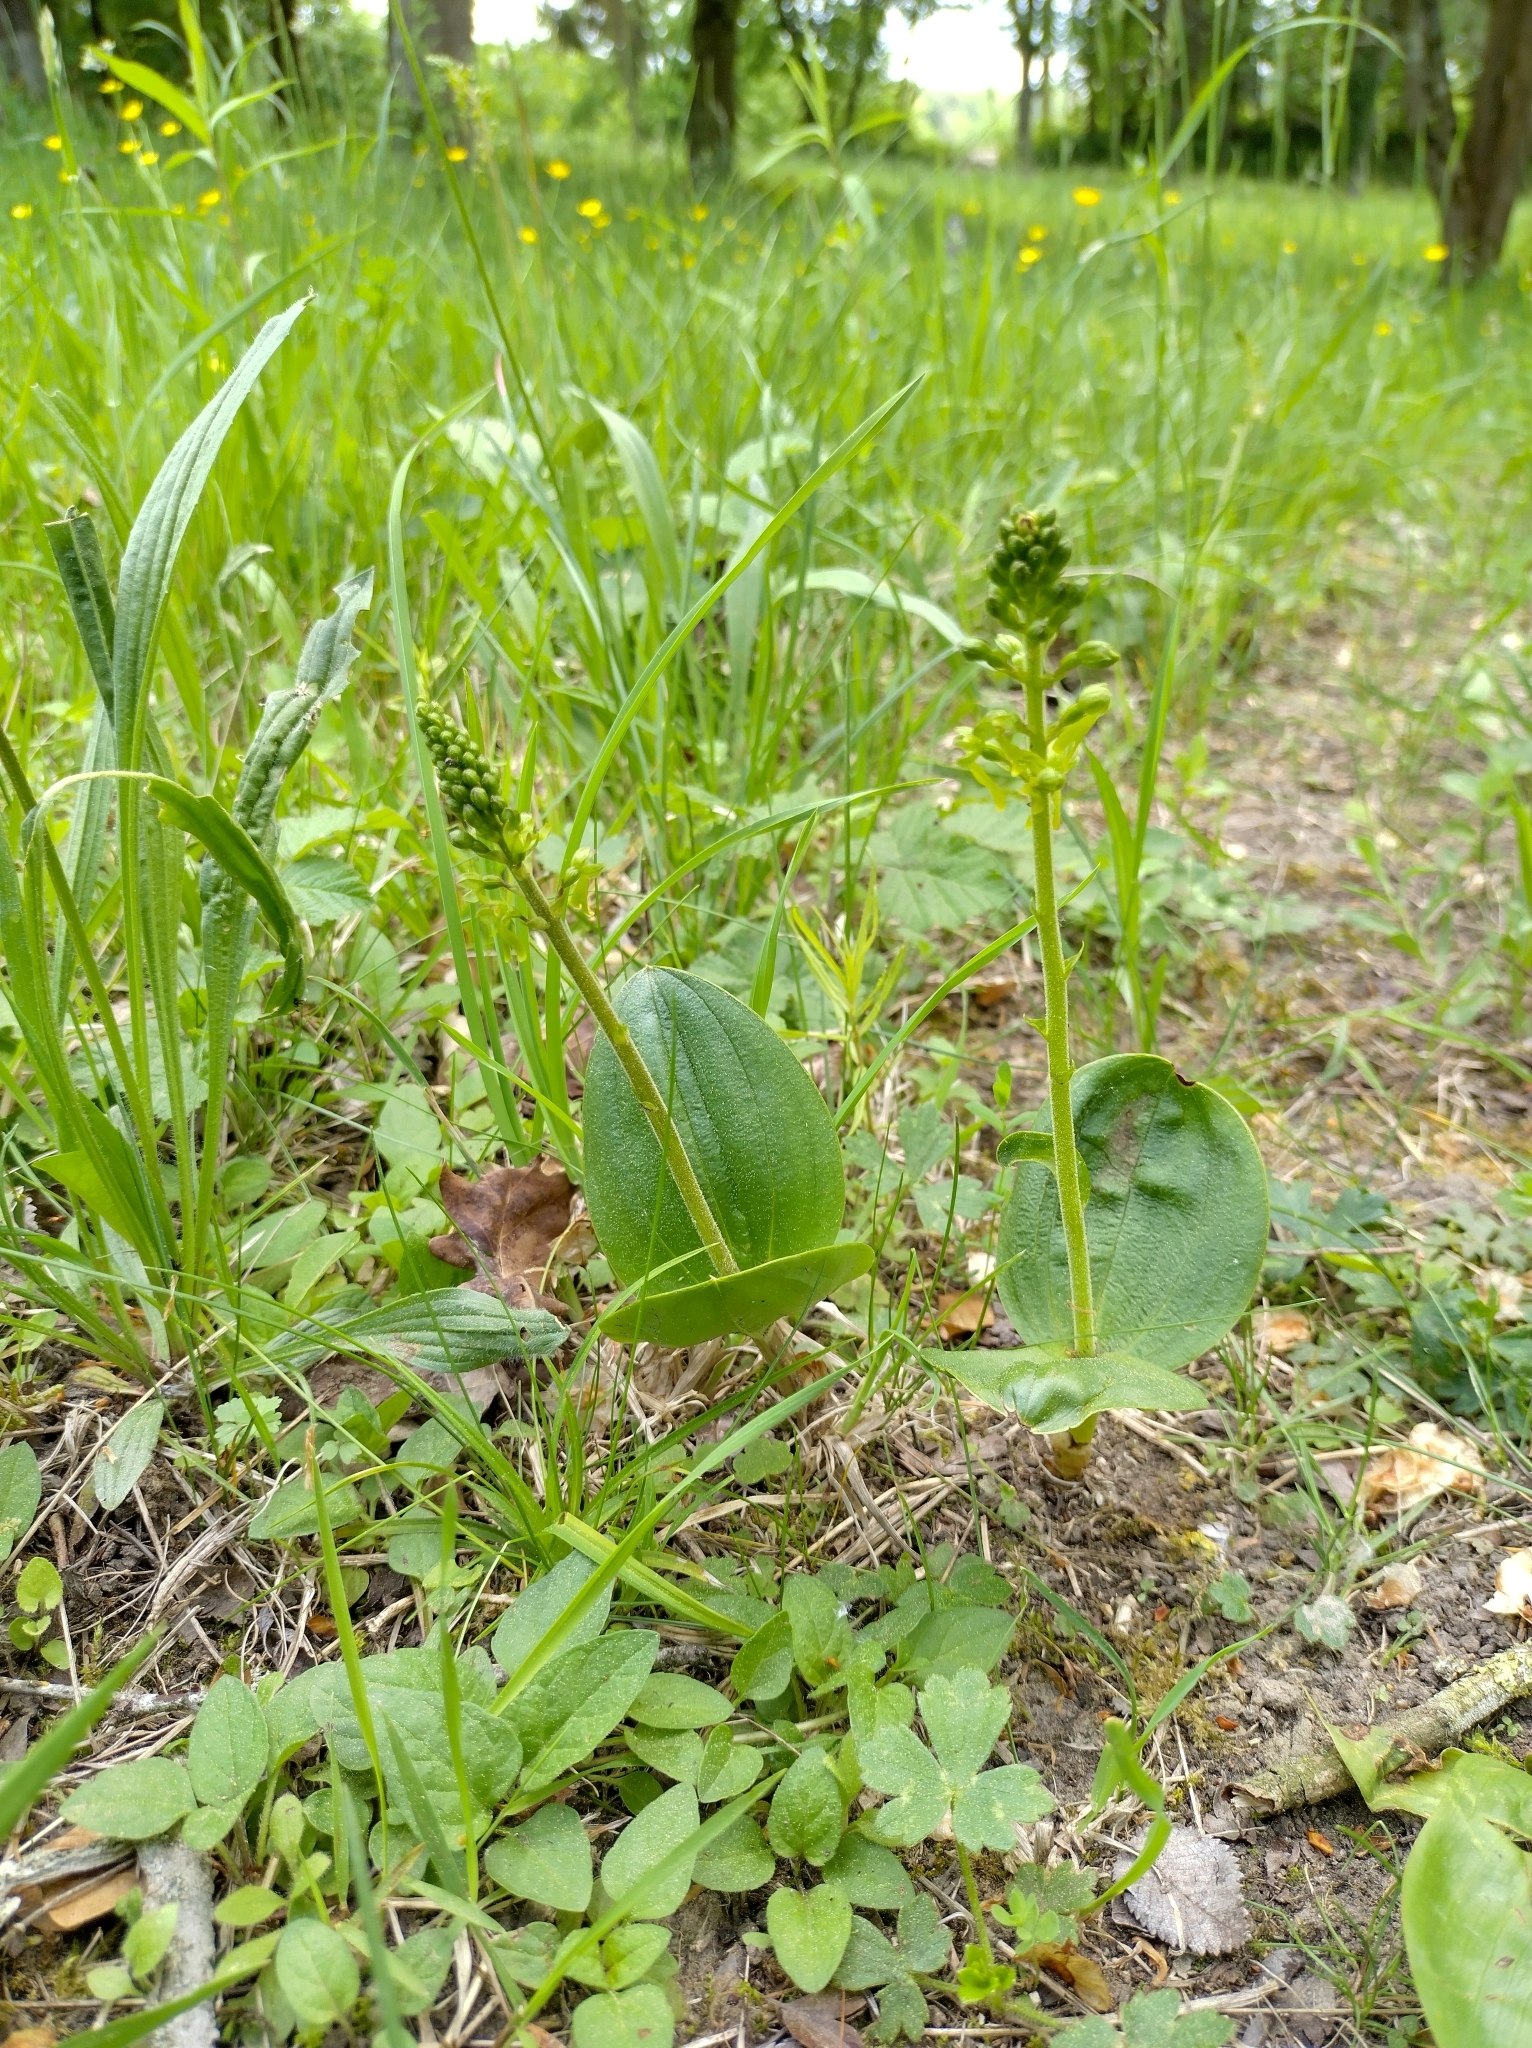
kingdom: Plantae
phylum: Tracheophyta
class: Liliopsida
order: Asparagales
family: Orchidaceae
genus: Neottia
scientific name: Neottia ovata
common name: Common twayblade
